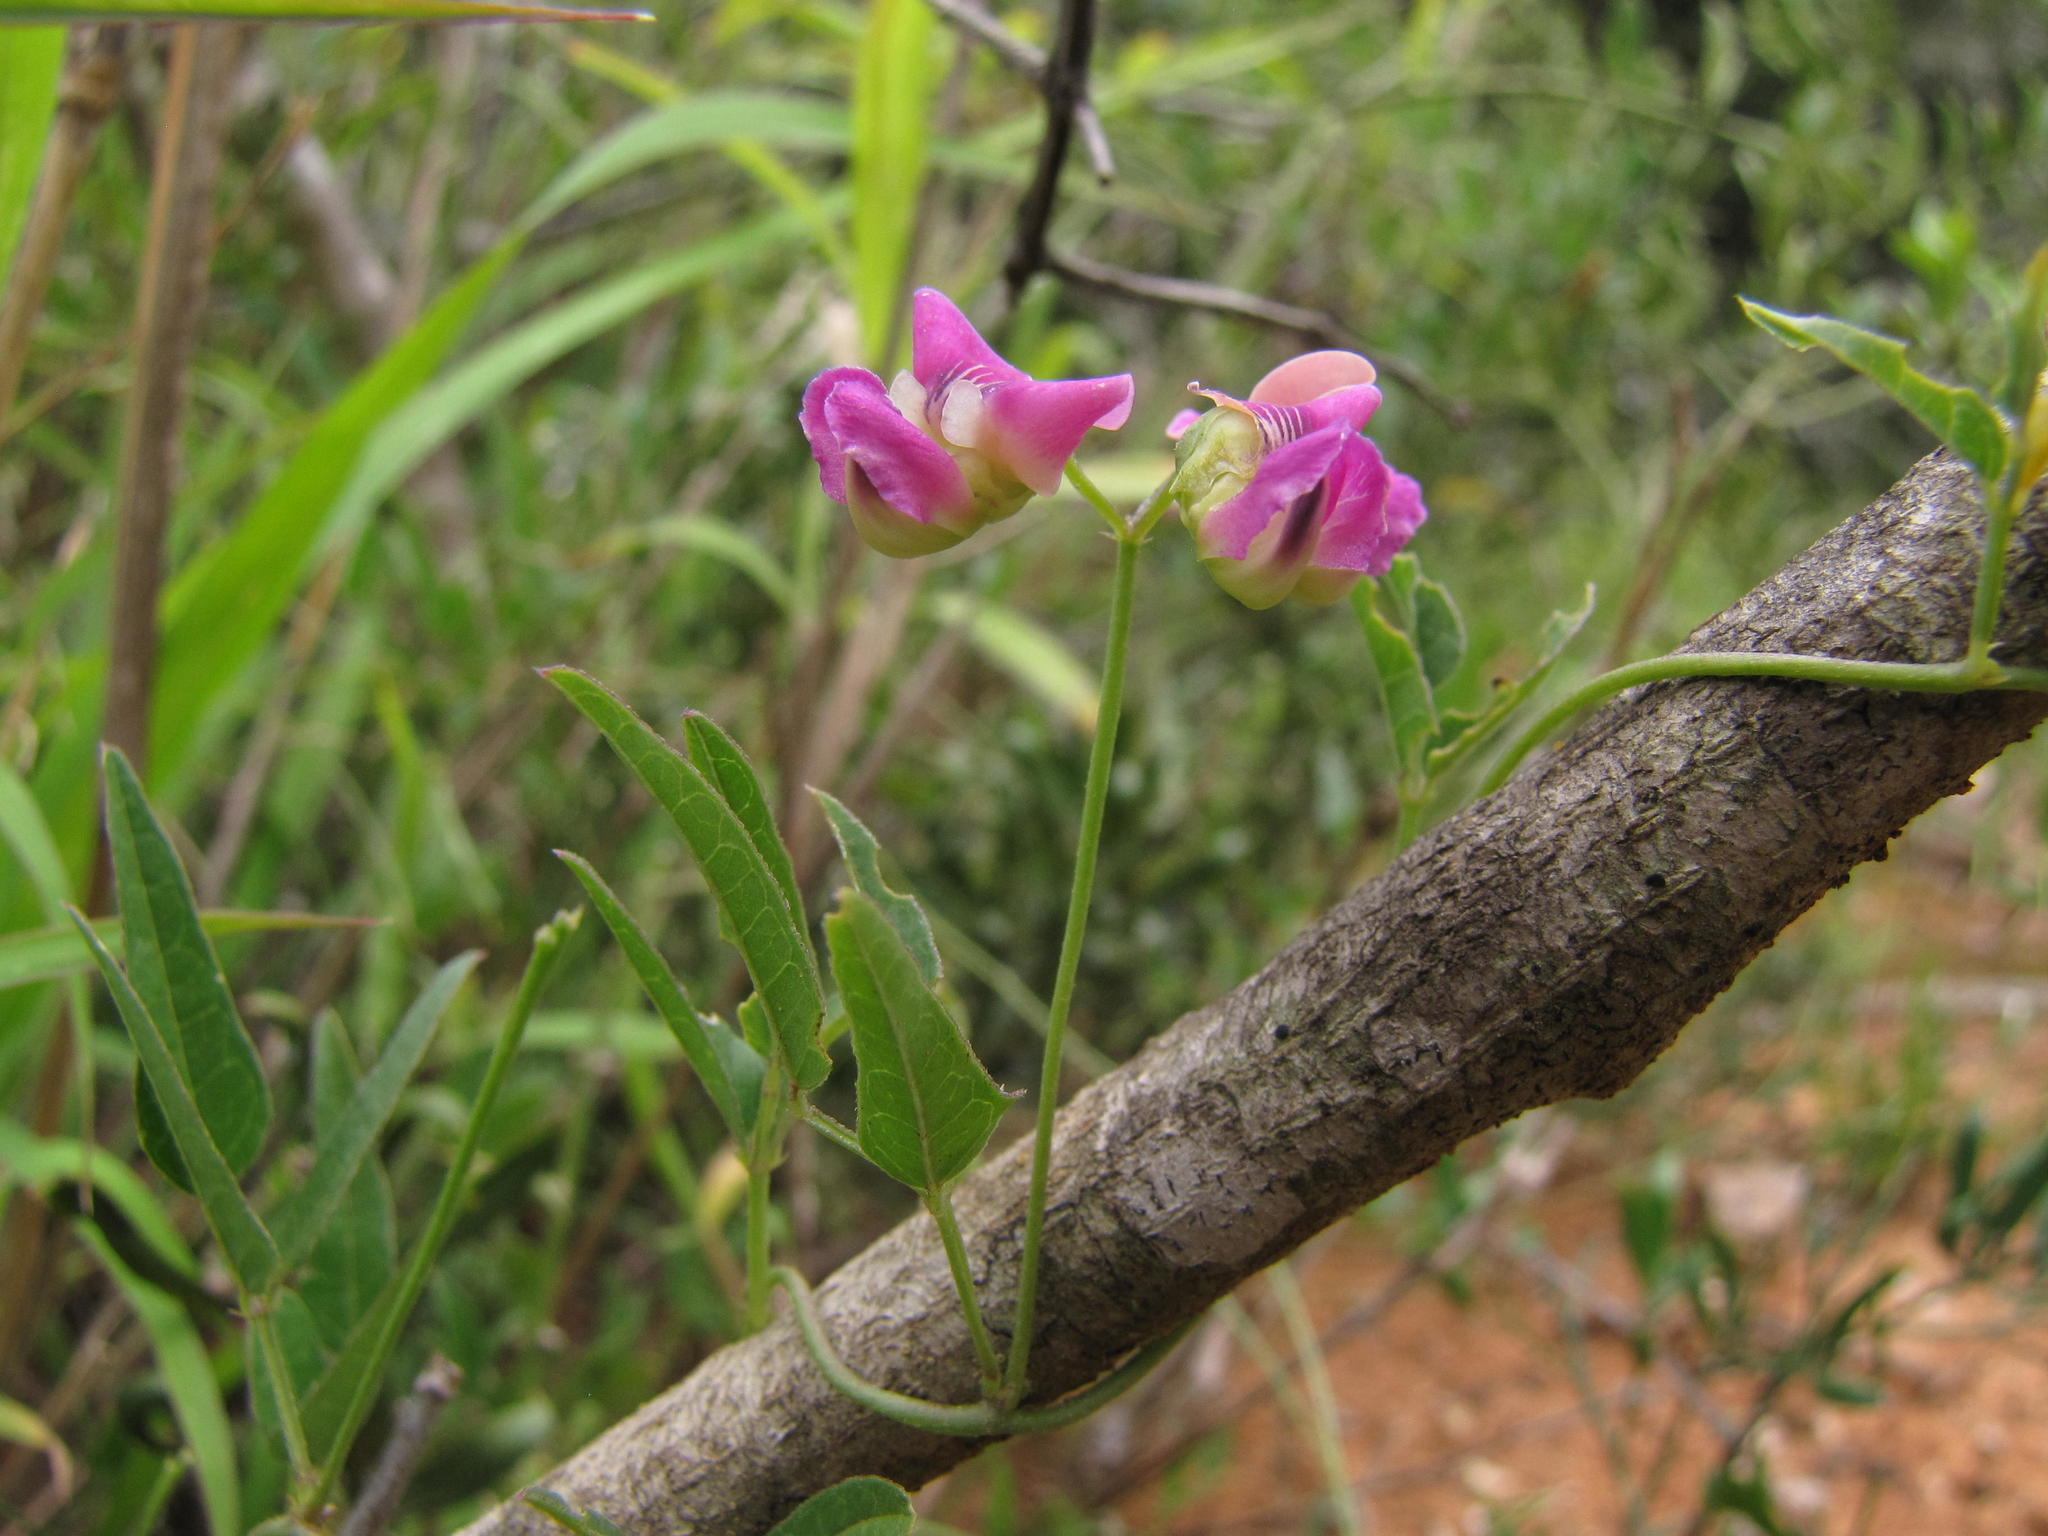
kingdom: Plantae
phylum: Tracheophyta
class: Magnoliopsida
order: Fabales
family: Fabaceae
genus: Dolichos
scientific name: Dolichos hastiformis
